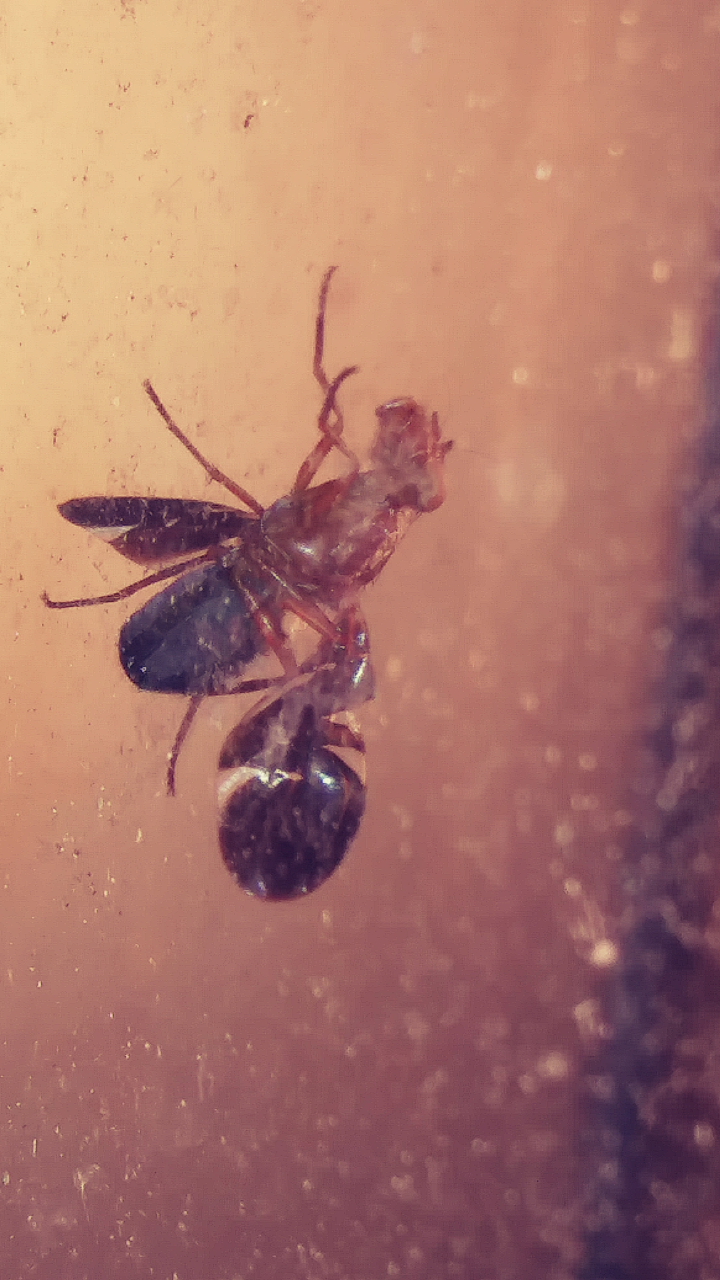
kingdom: Animalia
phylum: Arthropoda
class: Insecta
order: Hemiptera
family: Cicadellidae
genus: Agalliopsis
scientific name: Agalliopsis cervina
